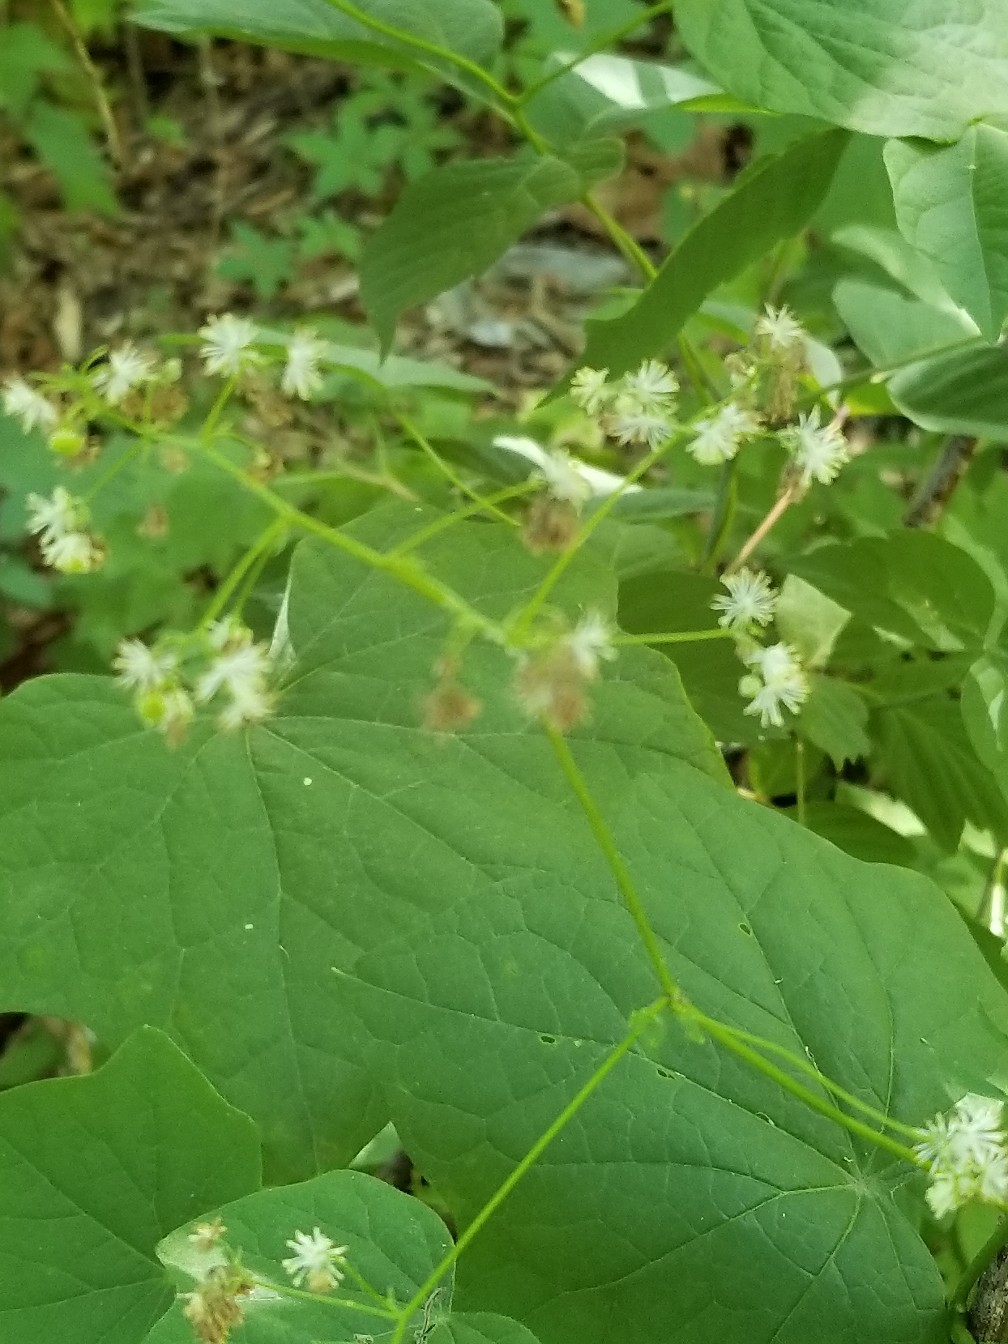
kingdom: Plantae
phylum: Tracheophyta
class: Magnoliopsida
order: Ranunculales
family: Ranunculaceae
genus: Thalictrum
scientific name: Thalictrum pubescens
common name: King-of-the-meadow
